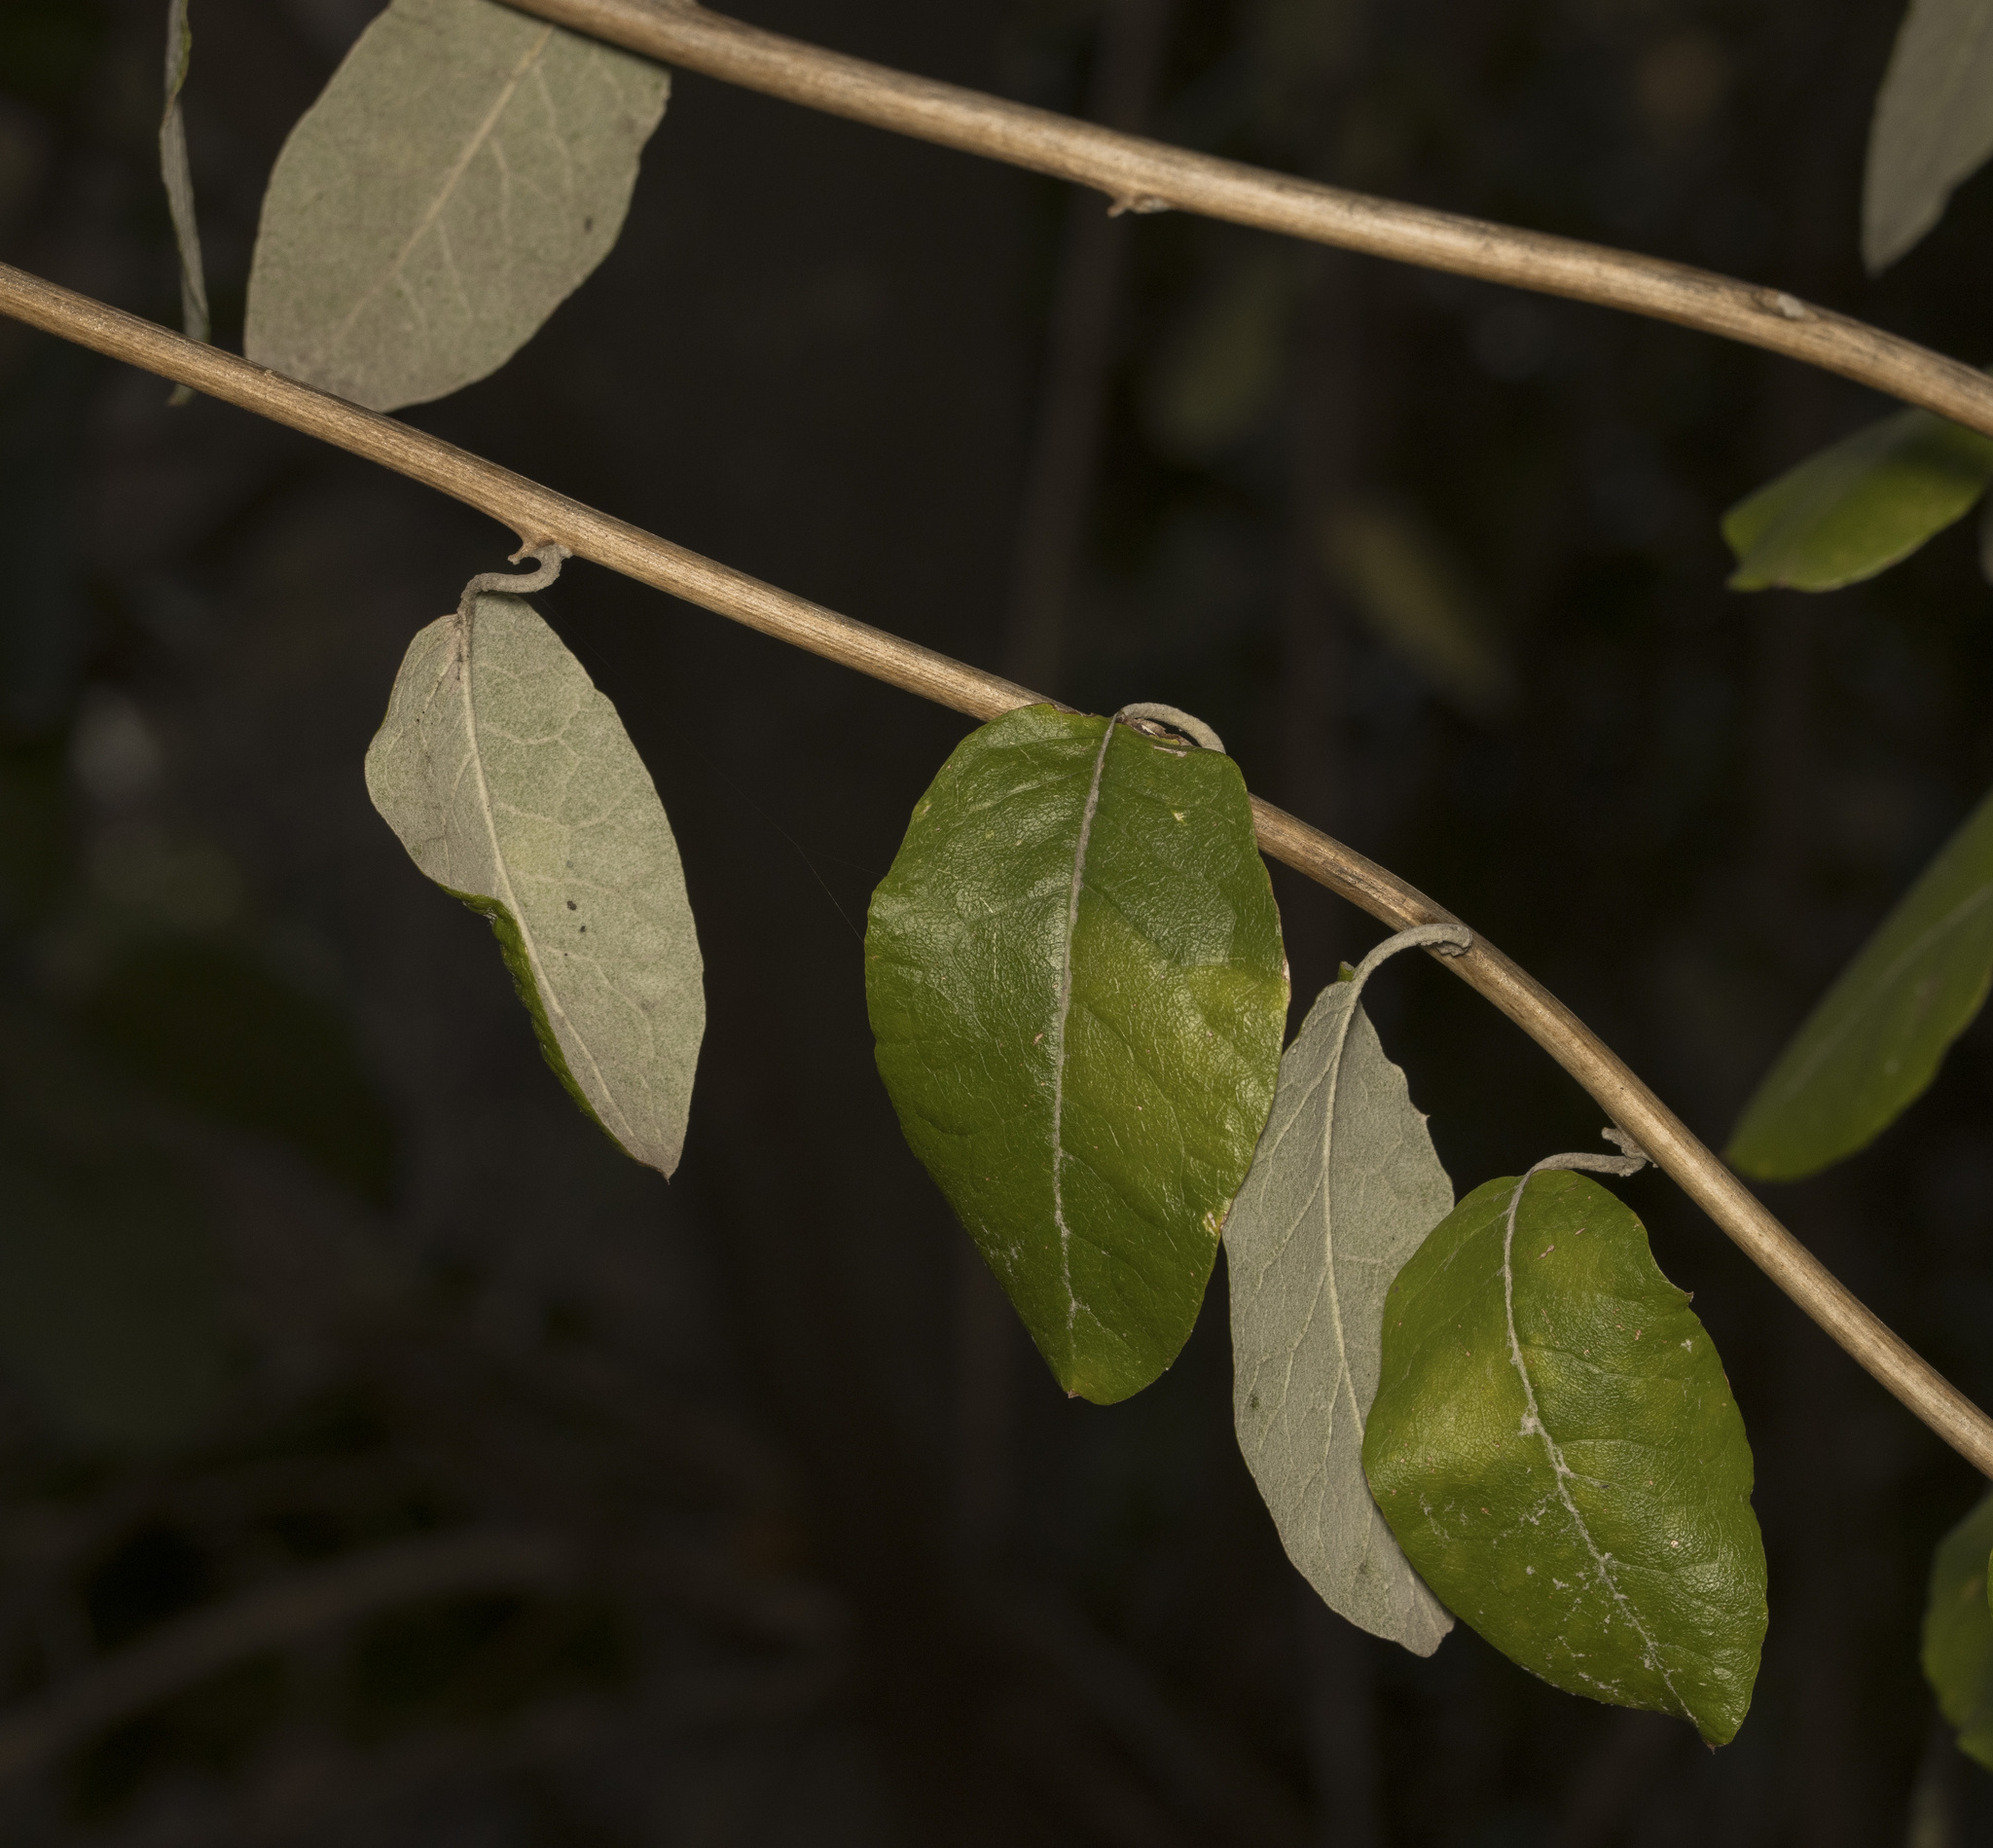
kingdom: Plantae
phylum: Tracheophyta
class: Magnoliopsida
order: Asterales
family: Asteraceae
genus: Proustia
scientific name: Proustia pyrifolia
